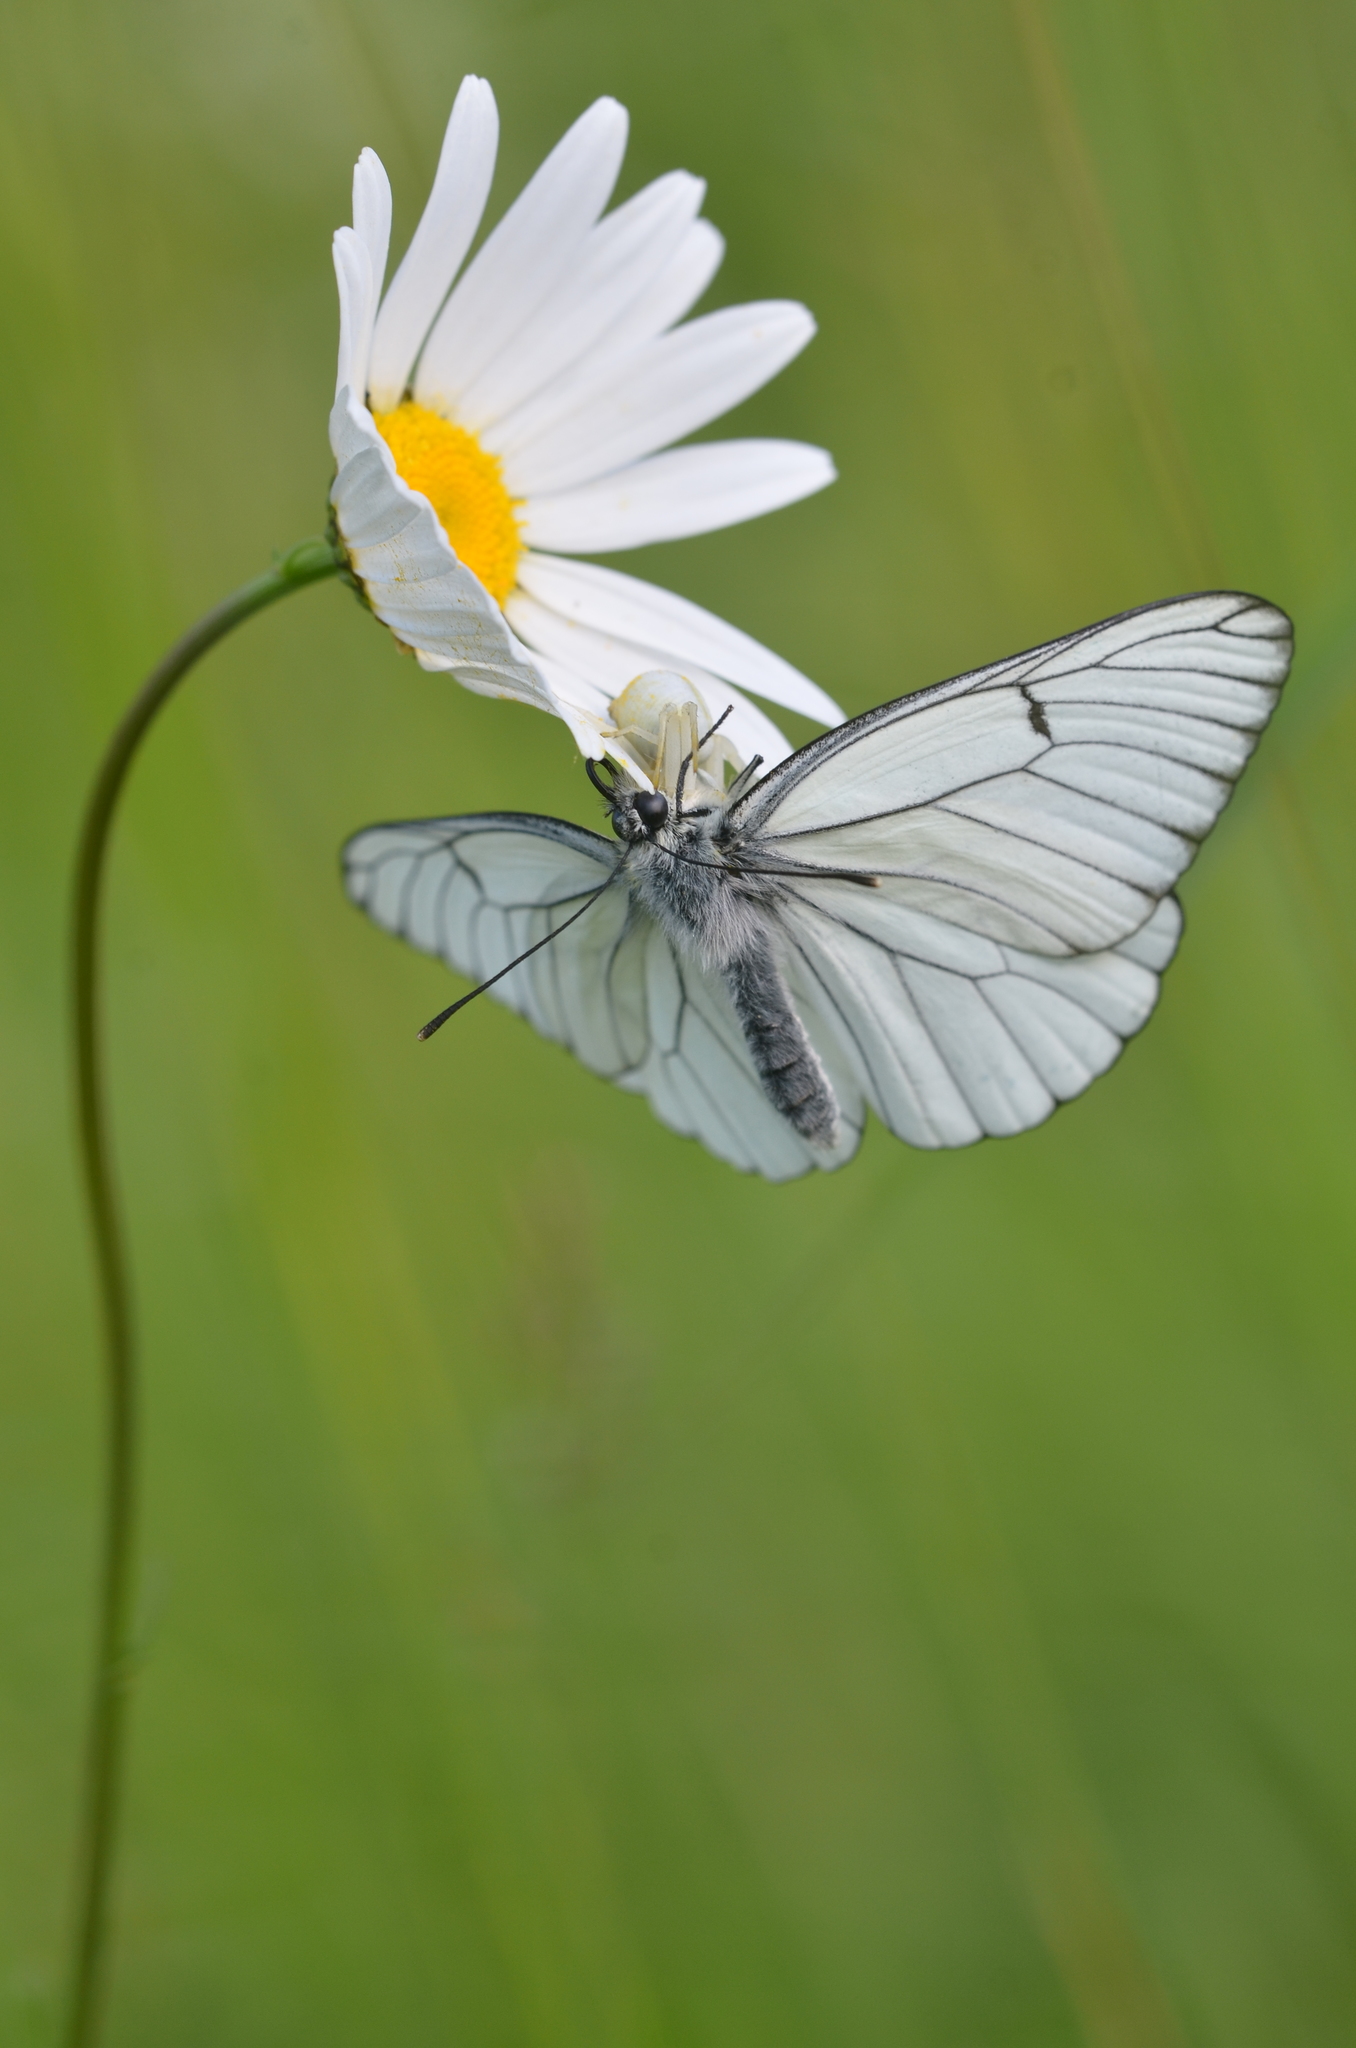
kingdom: Animalia
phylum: Arthropoda
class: Insecta
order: Lepidoptera
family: Pieridae
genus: Aporia
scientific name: Aporia crataegi
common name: Black-veined white
